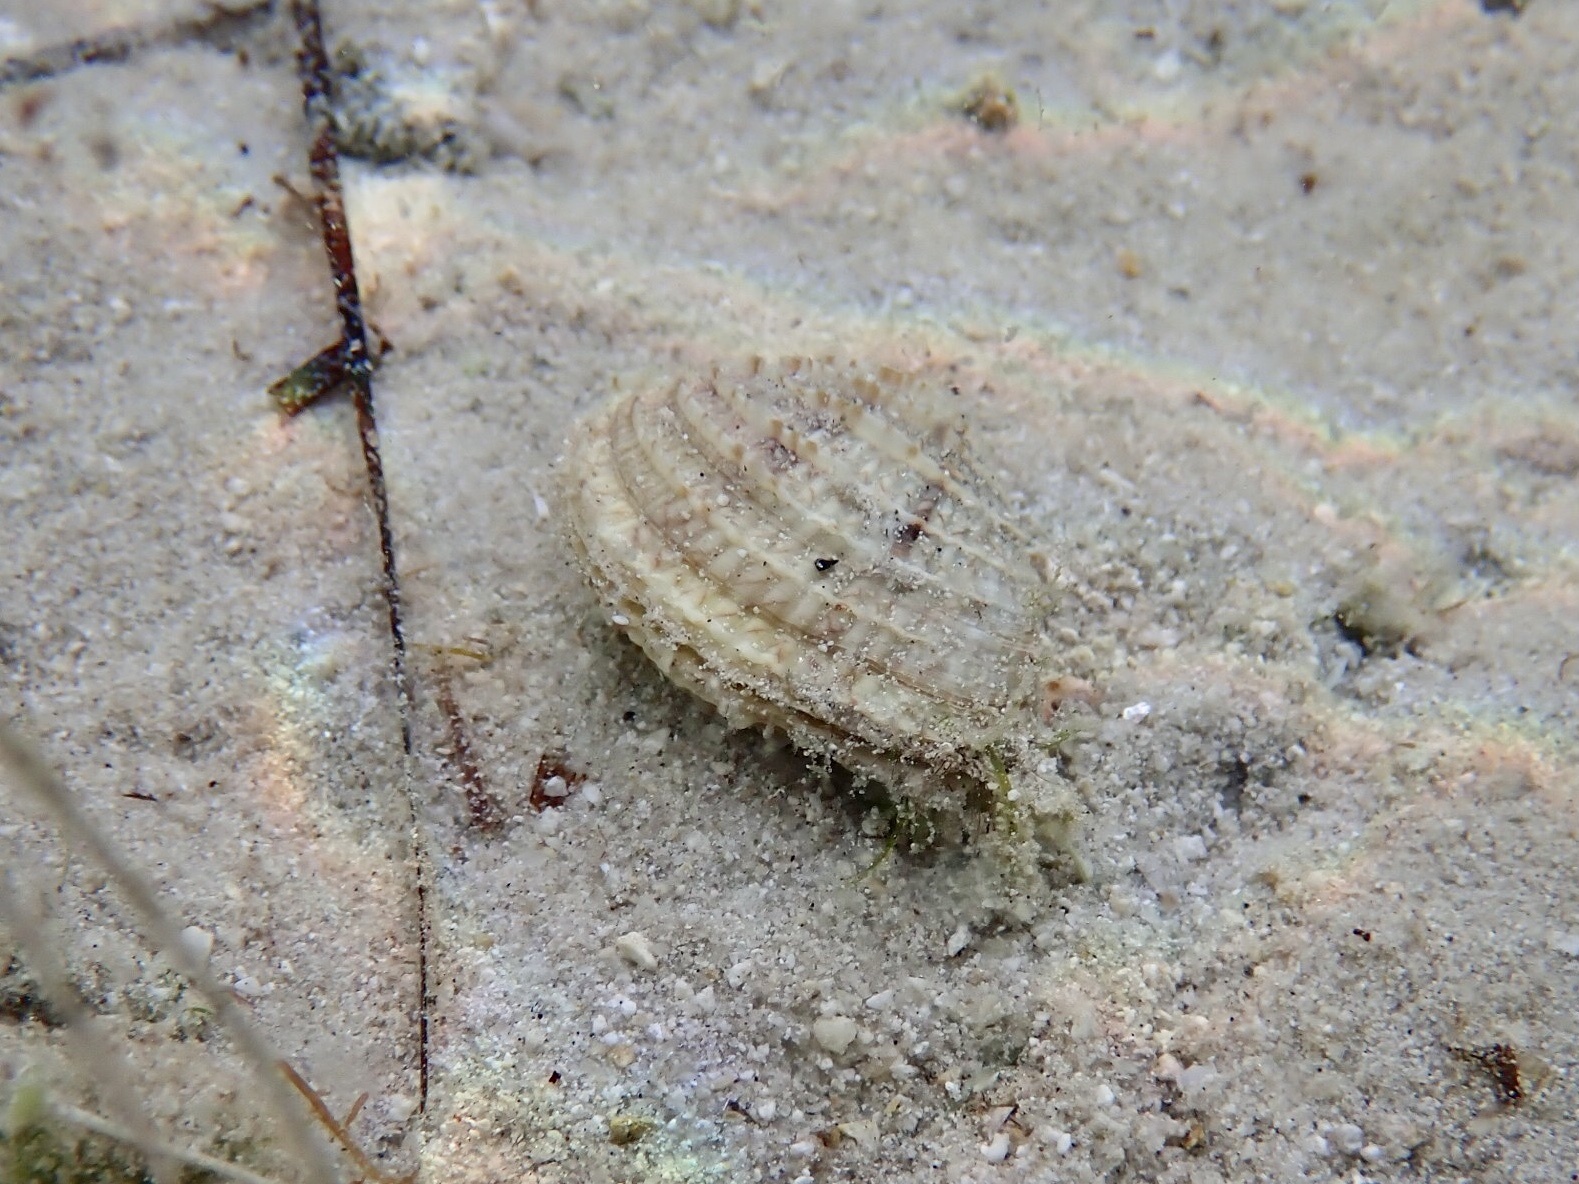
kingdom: Animalia
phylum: Mollusca
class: Bivalvia
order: Venerida
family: Veneridae
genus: Chione
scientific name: Chione elevata
